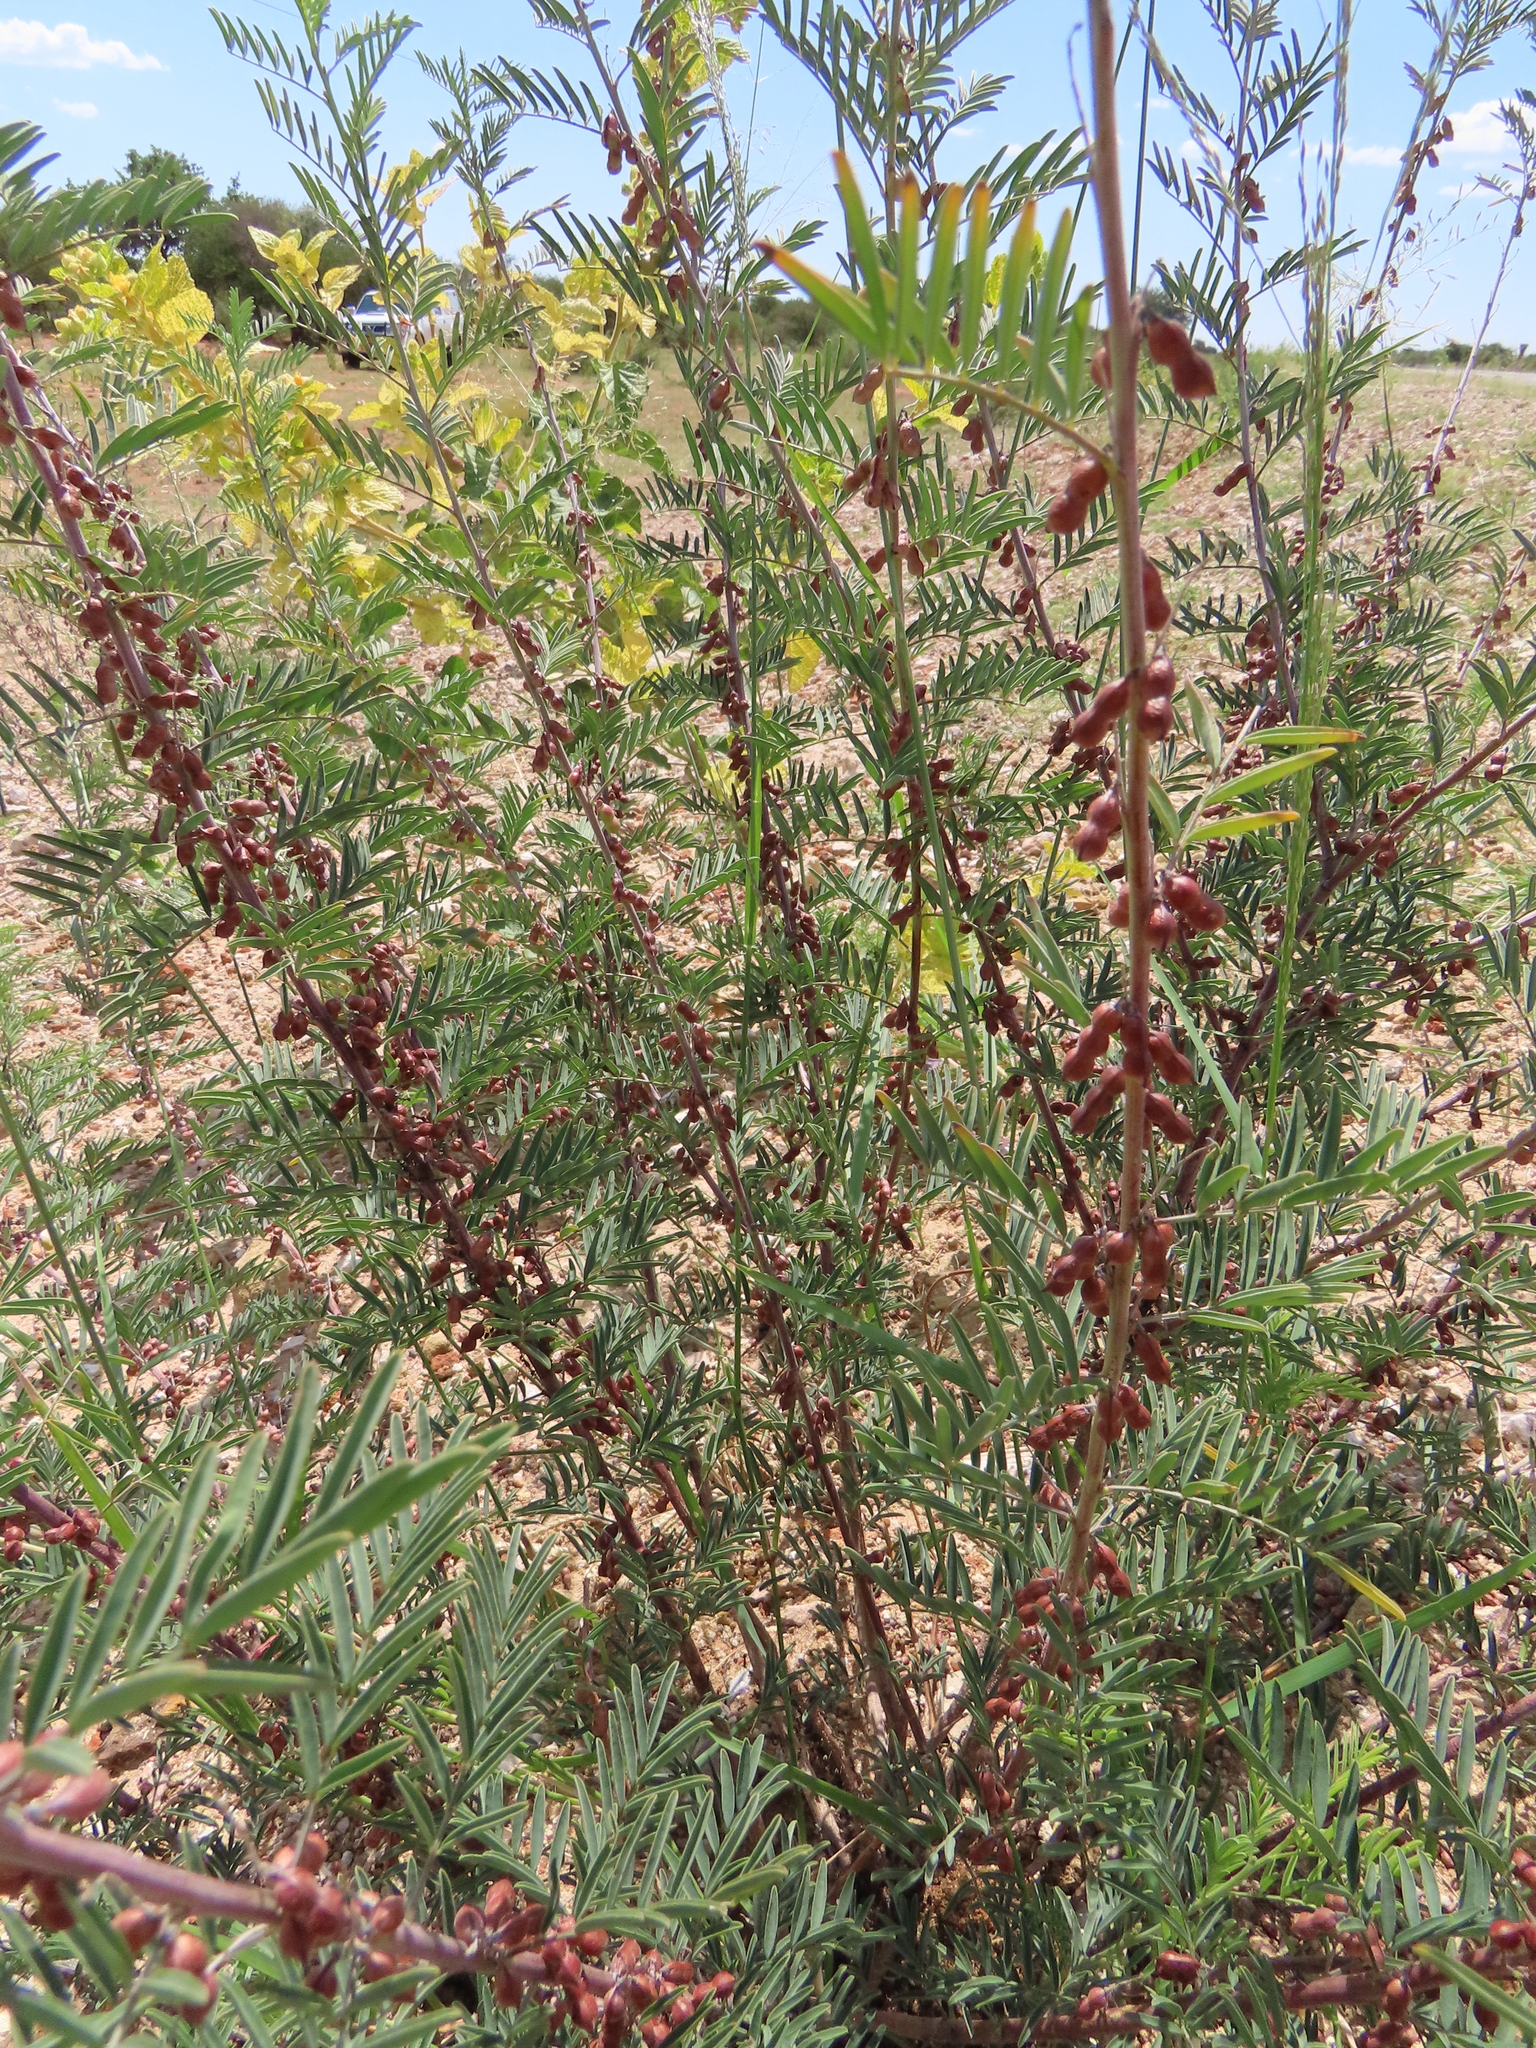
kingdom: Plantae
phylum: Tracheophyta
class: Magnoliopsida
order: Fabales
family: Fabaceae
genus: Indigofera
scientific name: Indigofera cryptantha
